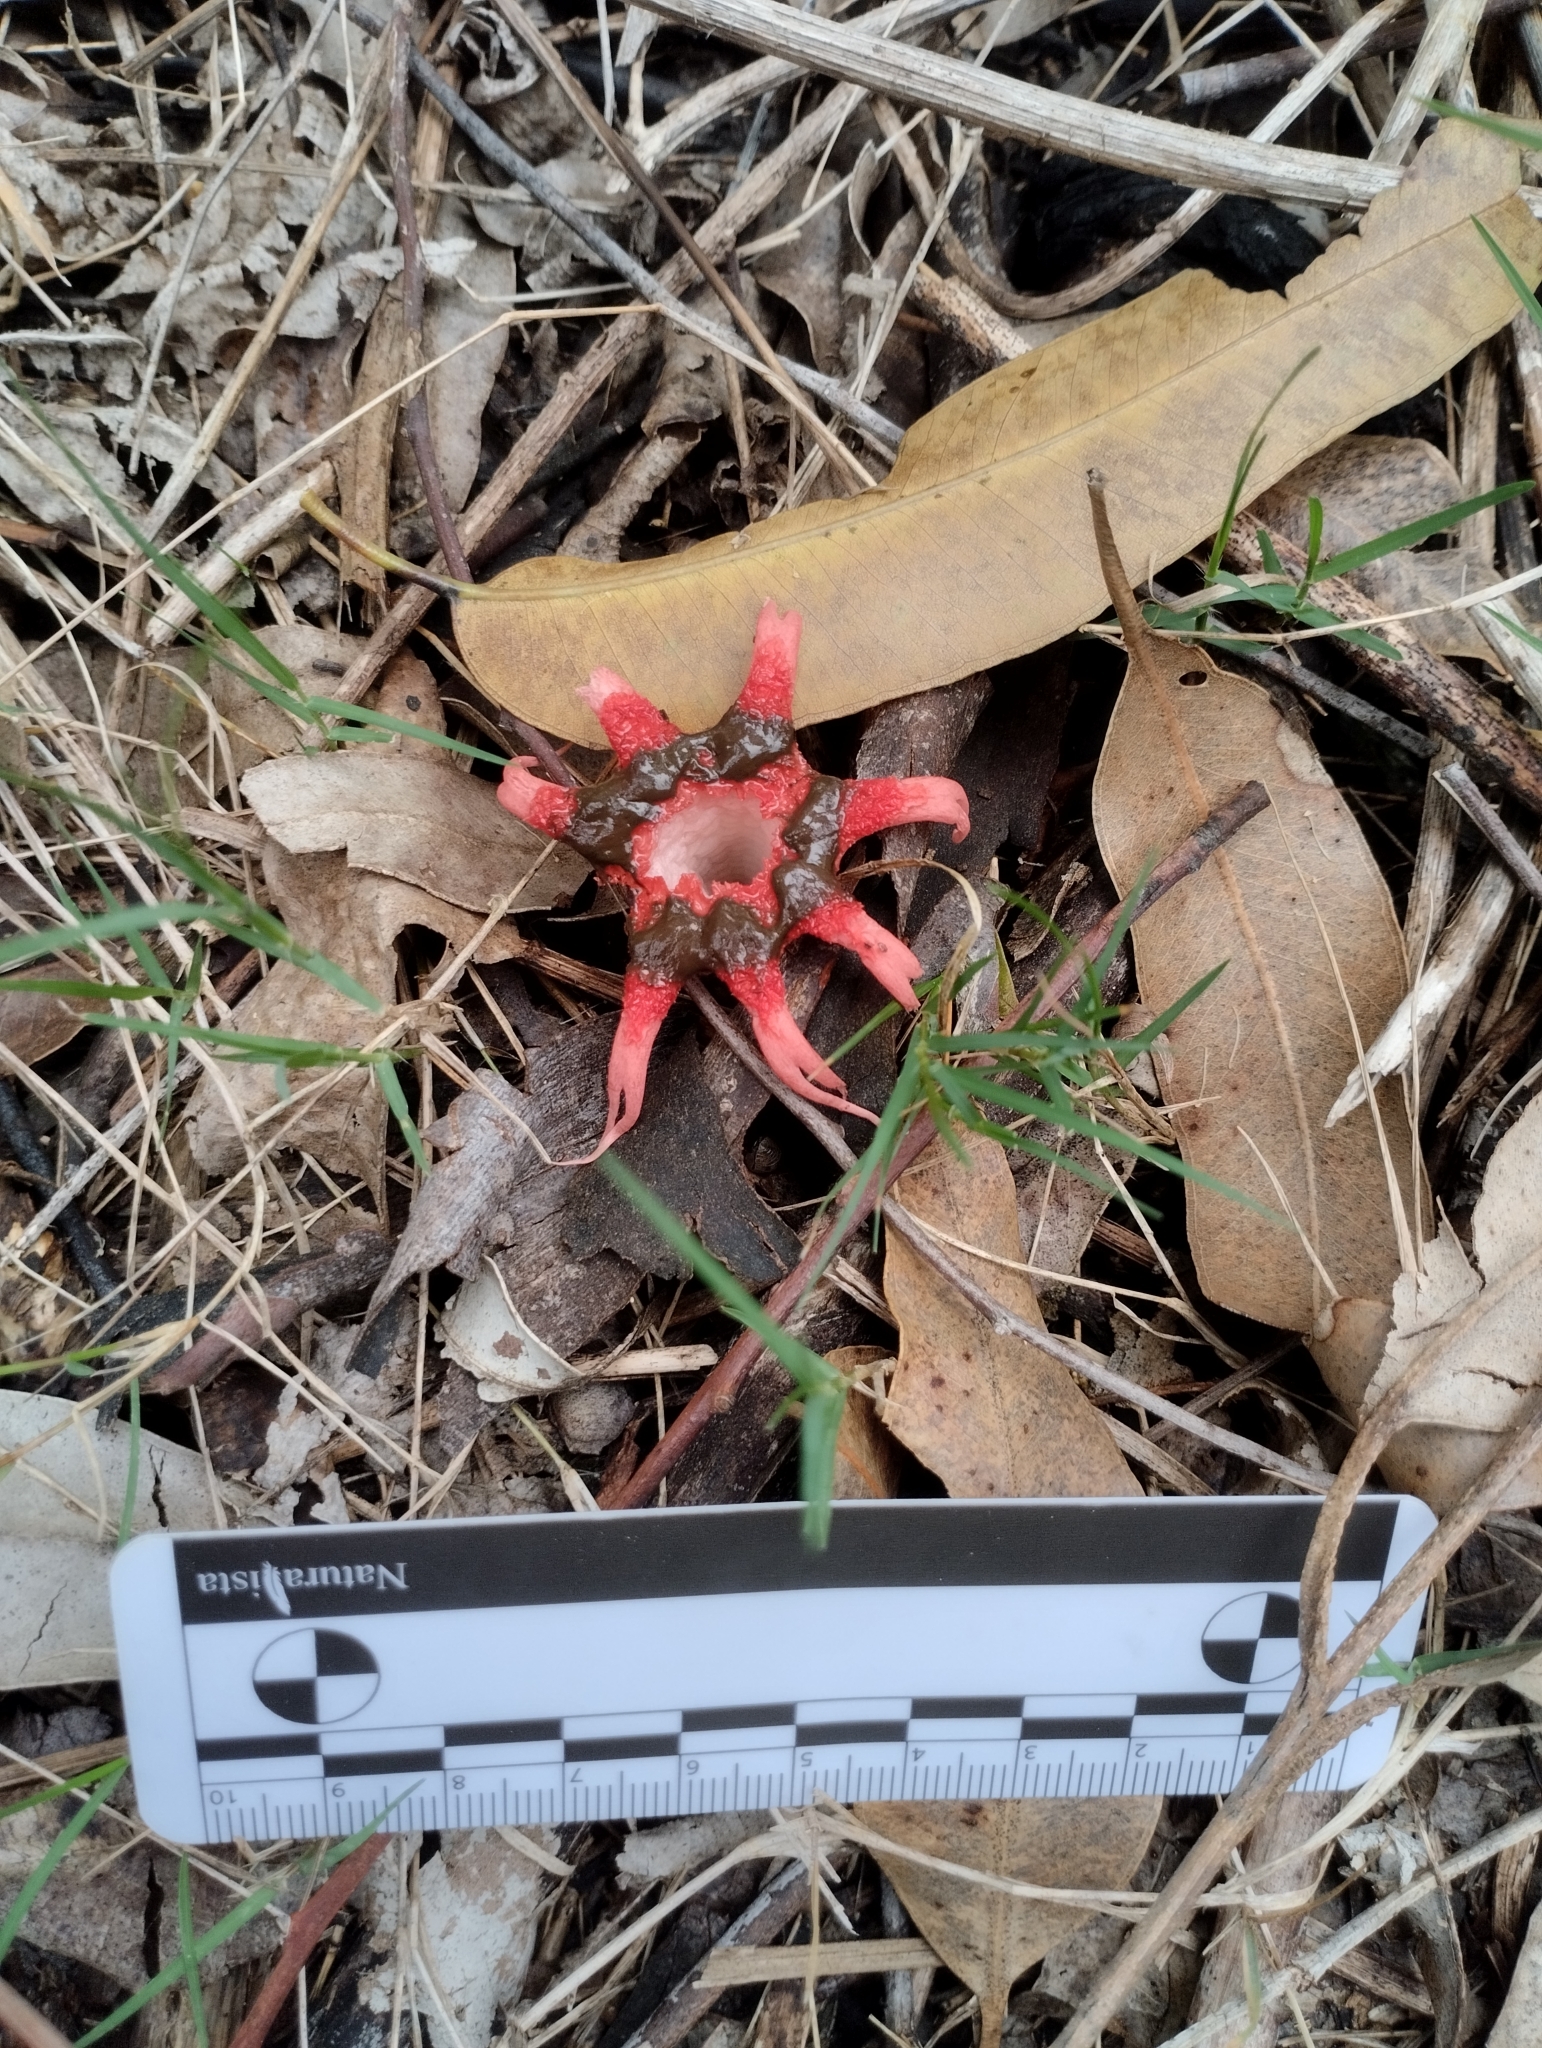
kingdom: Fungi
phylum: Basidiomycota
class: Agaricomycetes
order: Phallales
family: Phallaceae
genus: Aseroe
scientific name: Aseroe rubra
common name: Starfish fungus
